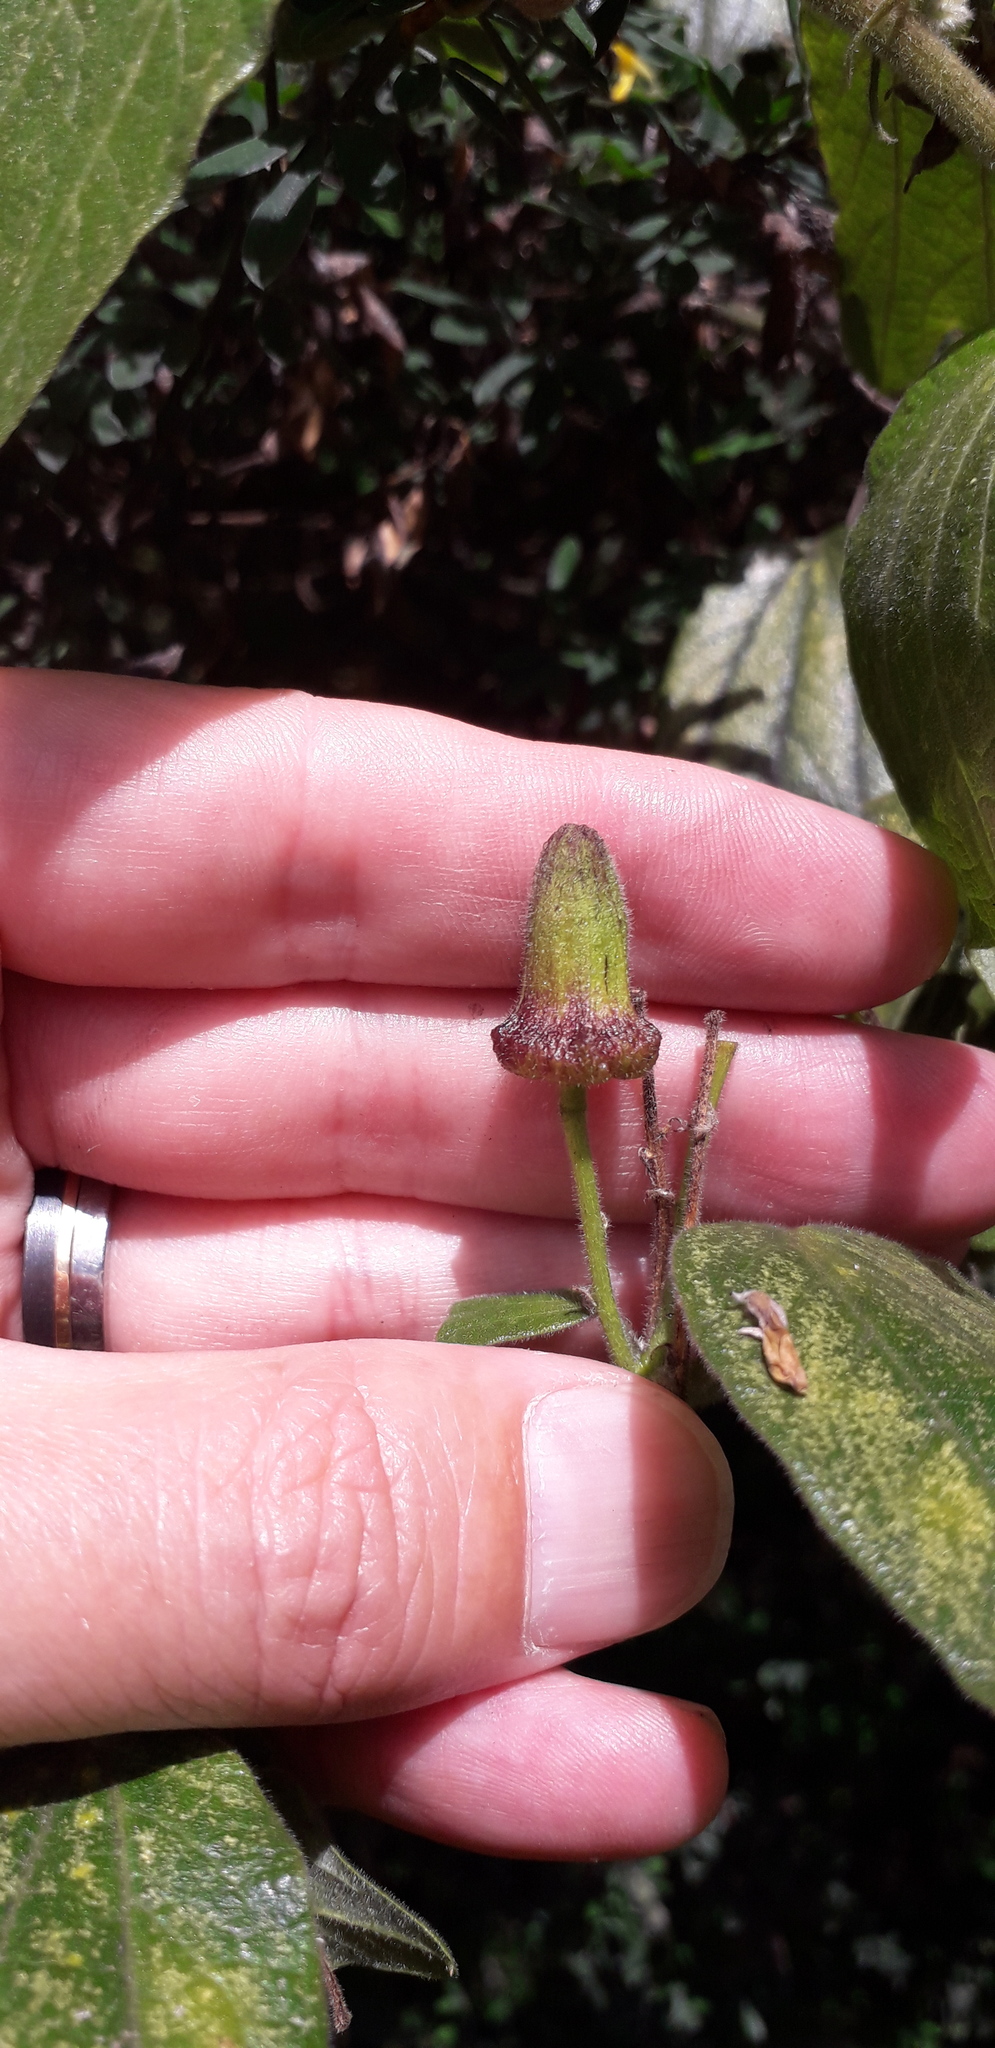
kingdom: Plantae
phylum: Tracheophyta
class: Magnoliopsida
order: Malpighiales
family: Passifloraceae
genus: Passiflora
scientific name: Passiflora bogotensis
